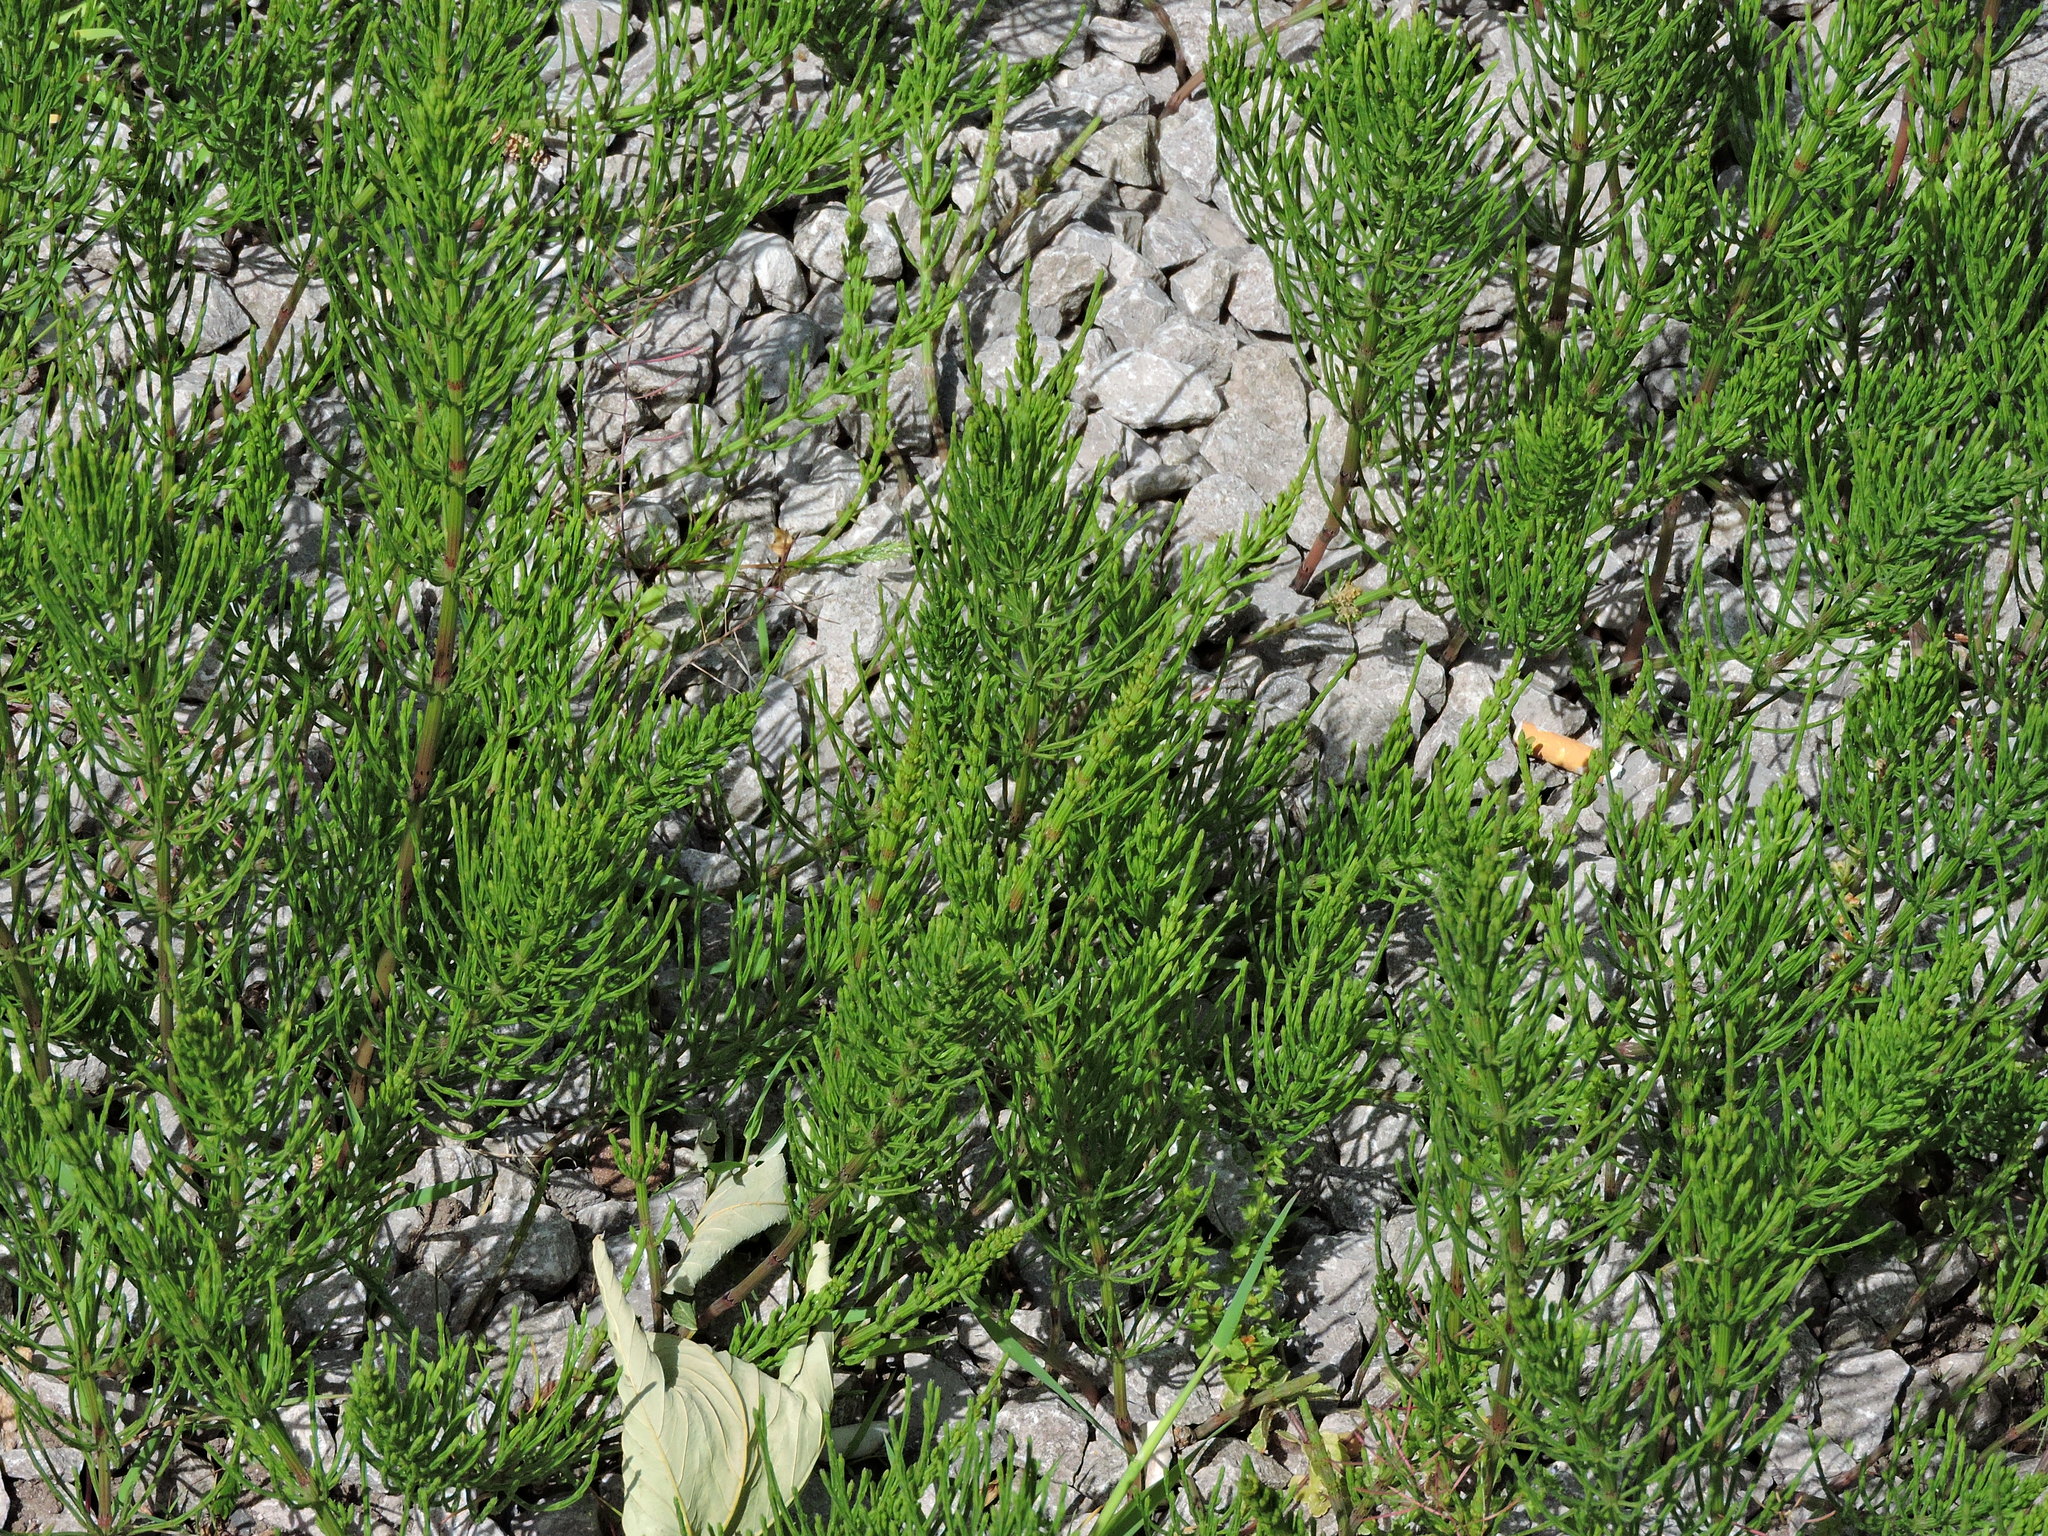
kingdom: Plantae
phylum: Tracheophyta
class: Polypodiopsida
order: Equisetales
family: Equisetaceae
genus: Equisetum
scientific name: Equisetum arvense
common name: Field horsetail
